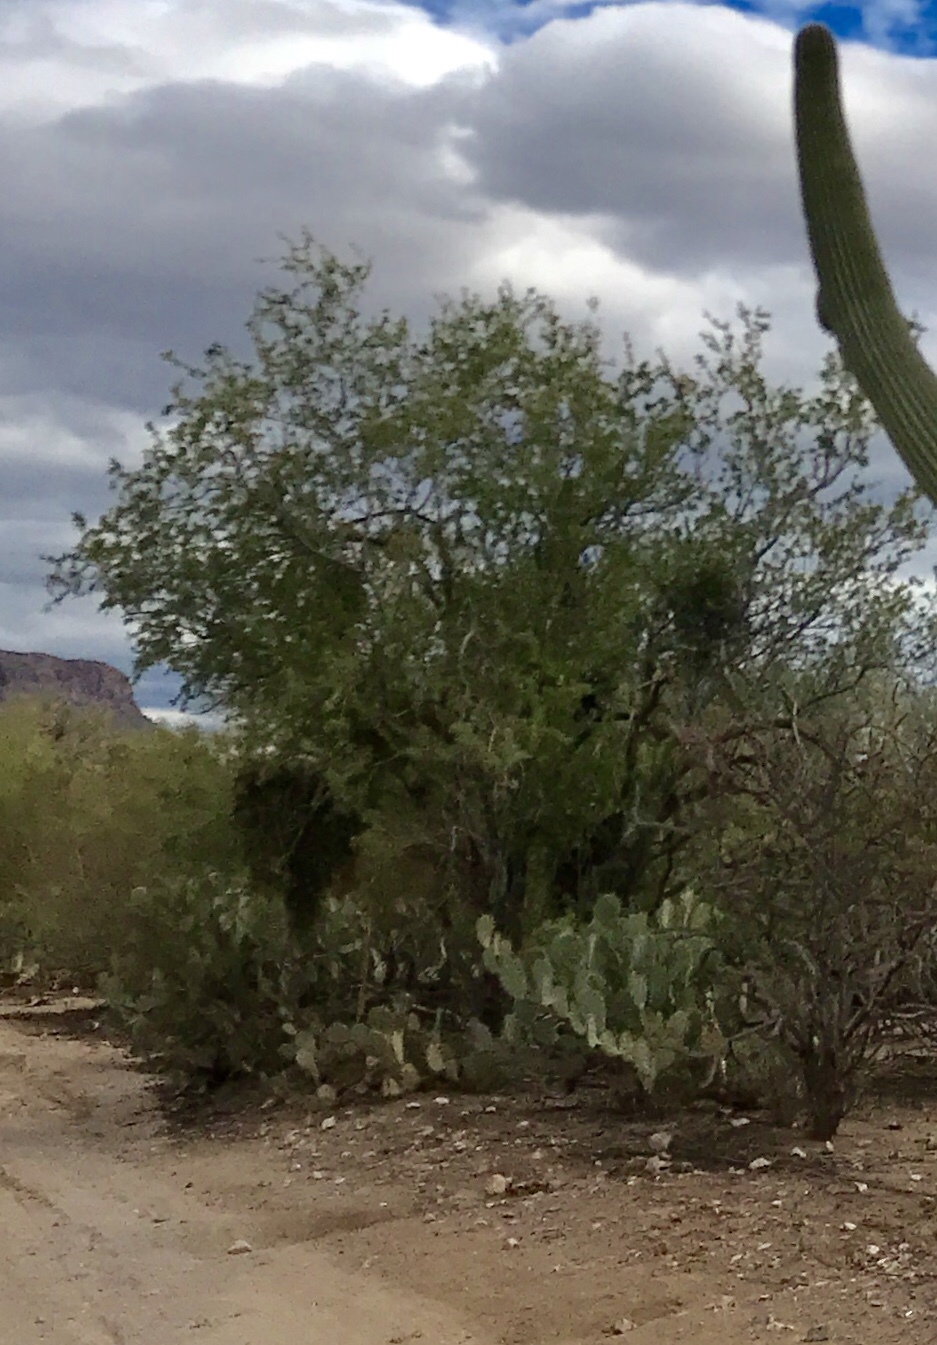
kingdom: Plantae
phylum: Tracheophyta
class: Magnoliopsida
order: Fabales
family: Fabaceae
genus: Olneya
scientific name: Olneya tesota
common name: Desert ironwood
